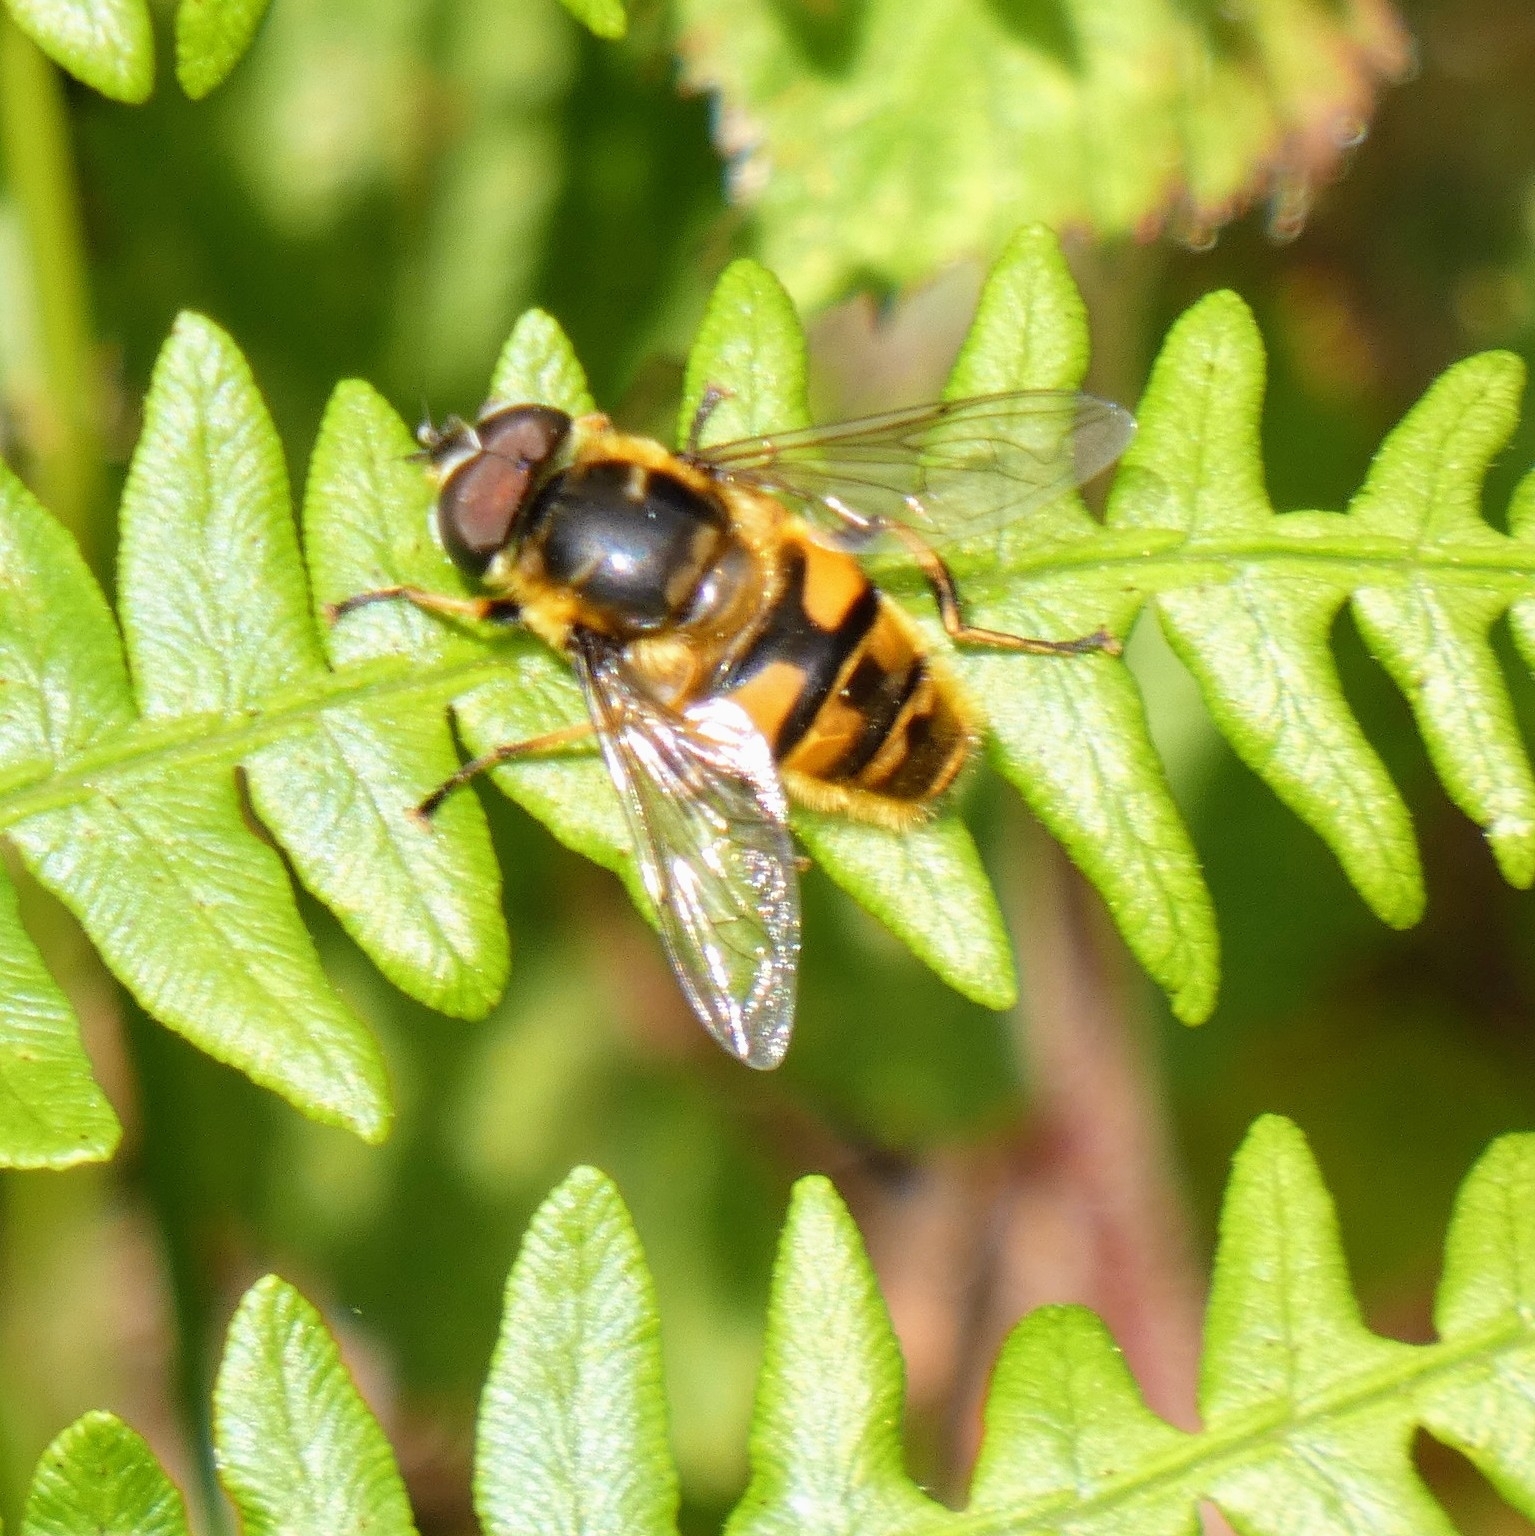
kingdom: Animalia
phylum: Arthropoda
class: Insecta
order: Diptera
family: Syrphidae
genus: Myathropa
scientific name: Myathropa florea
